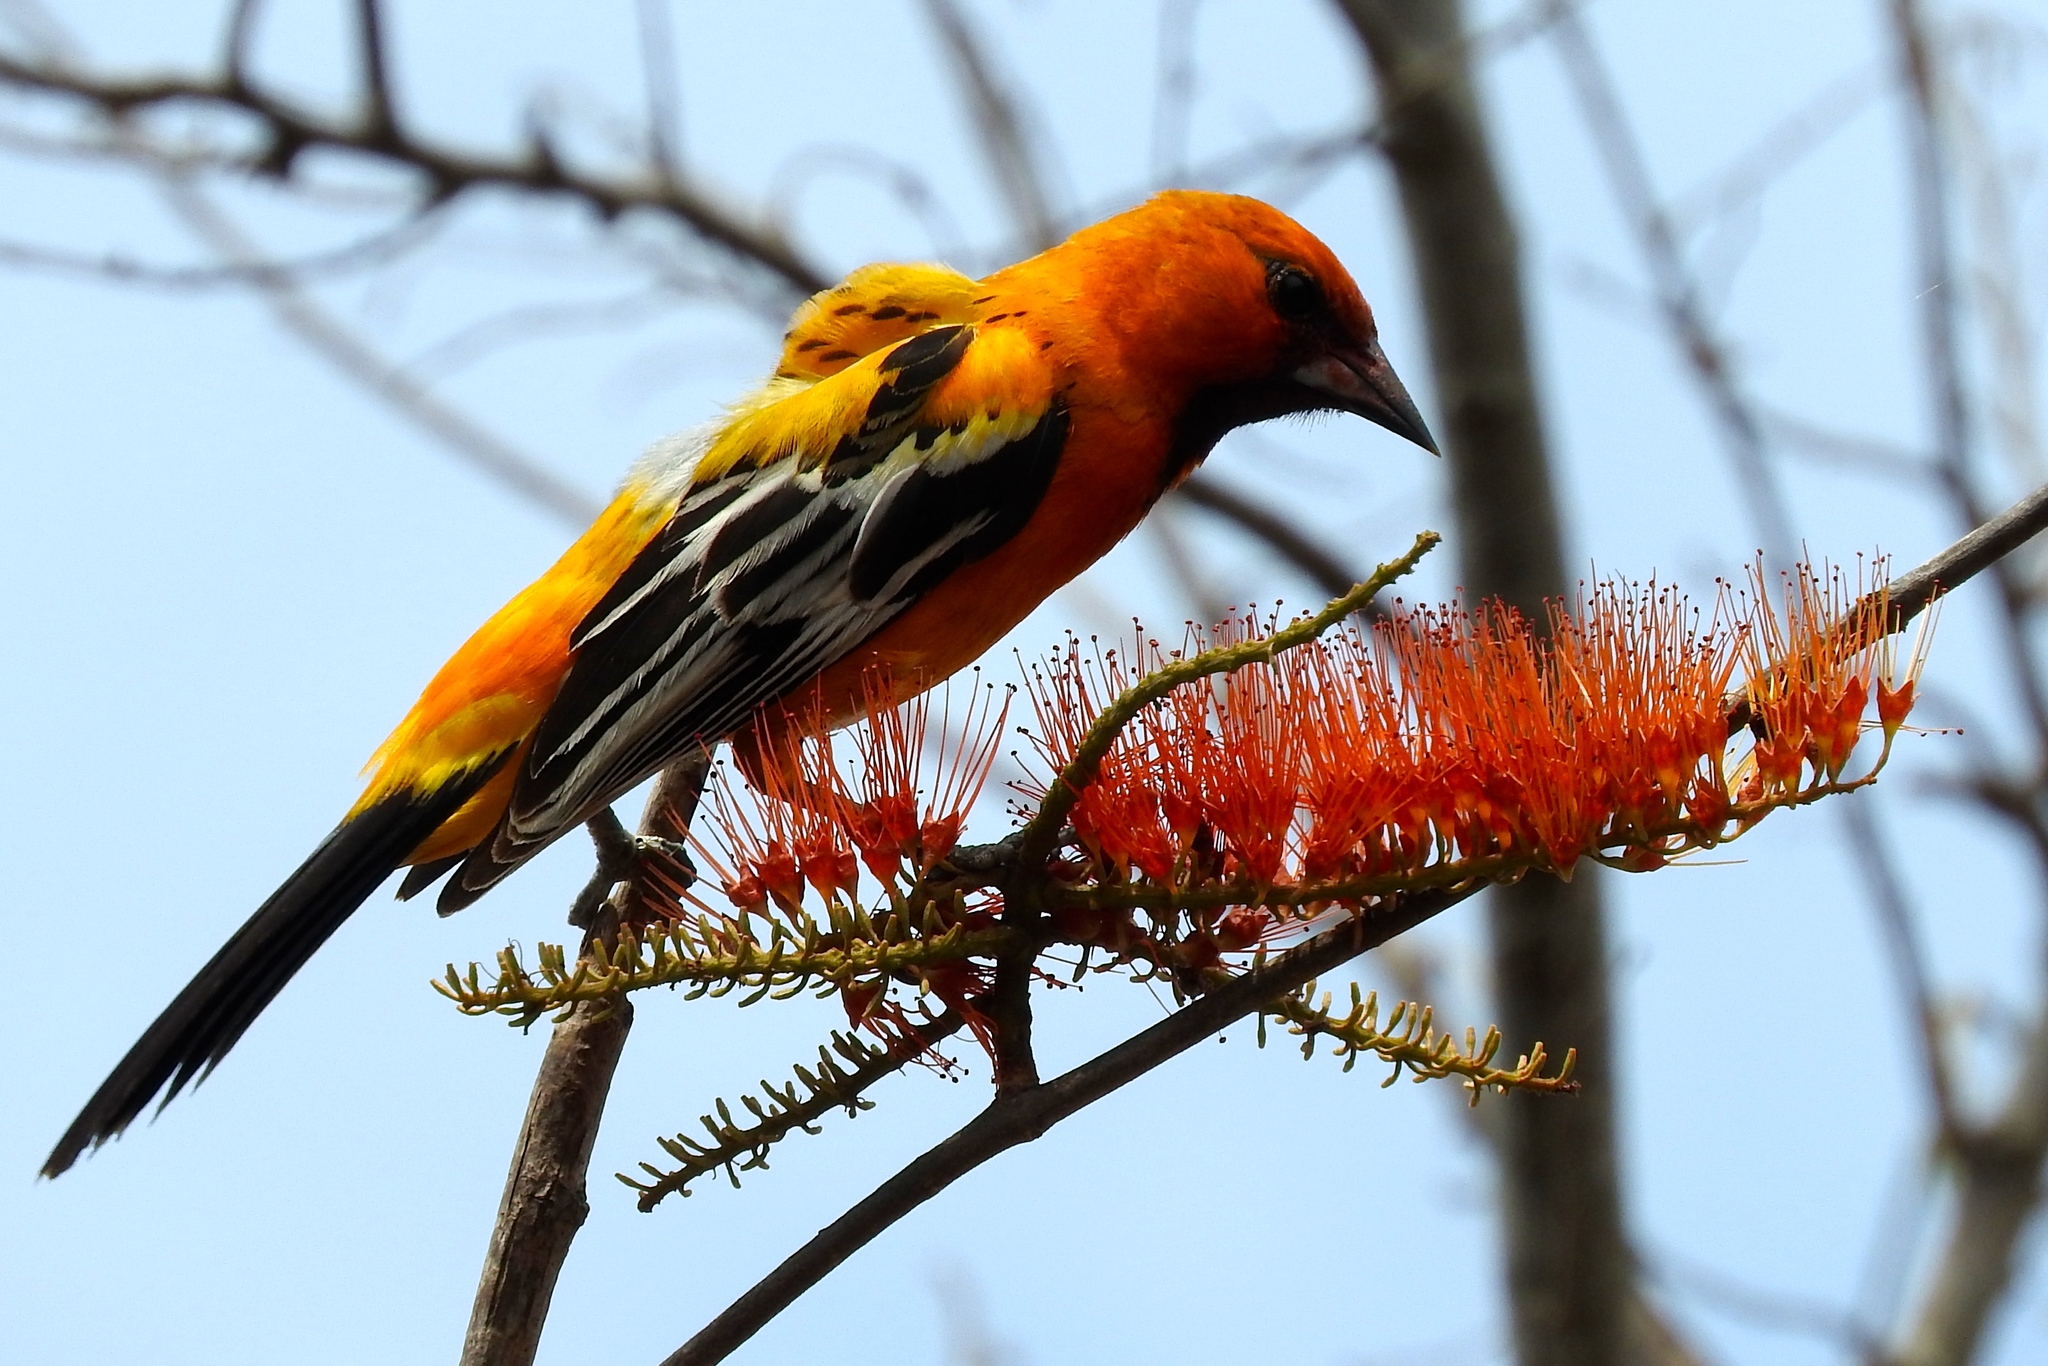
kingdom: Animalia
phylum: Chordata
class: Aves
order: Passeriformes
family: Icteridae
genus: Icterus
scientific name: Icterus pustulatus
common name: Streak-backed oriole
